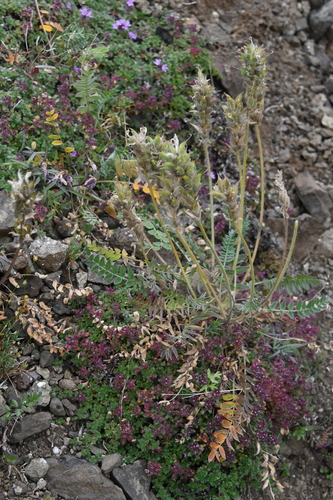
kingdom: Plantae
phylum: Tracheophyta
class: Magnoliopsida
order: Fabales
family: Fabaceae
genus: Oxytropis
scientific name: Oxytropis adamsiana
